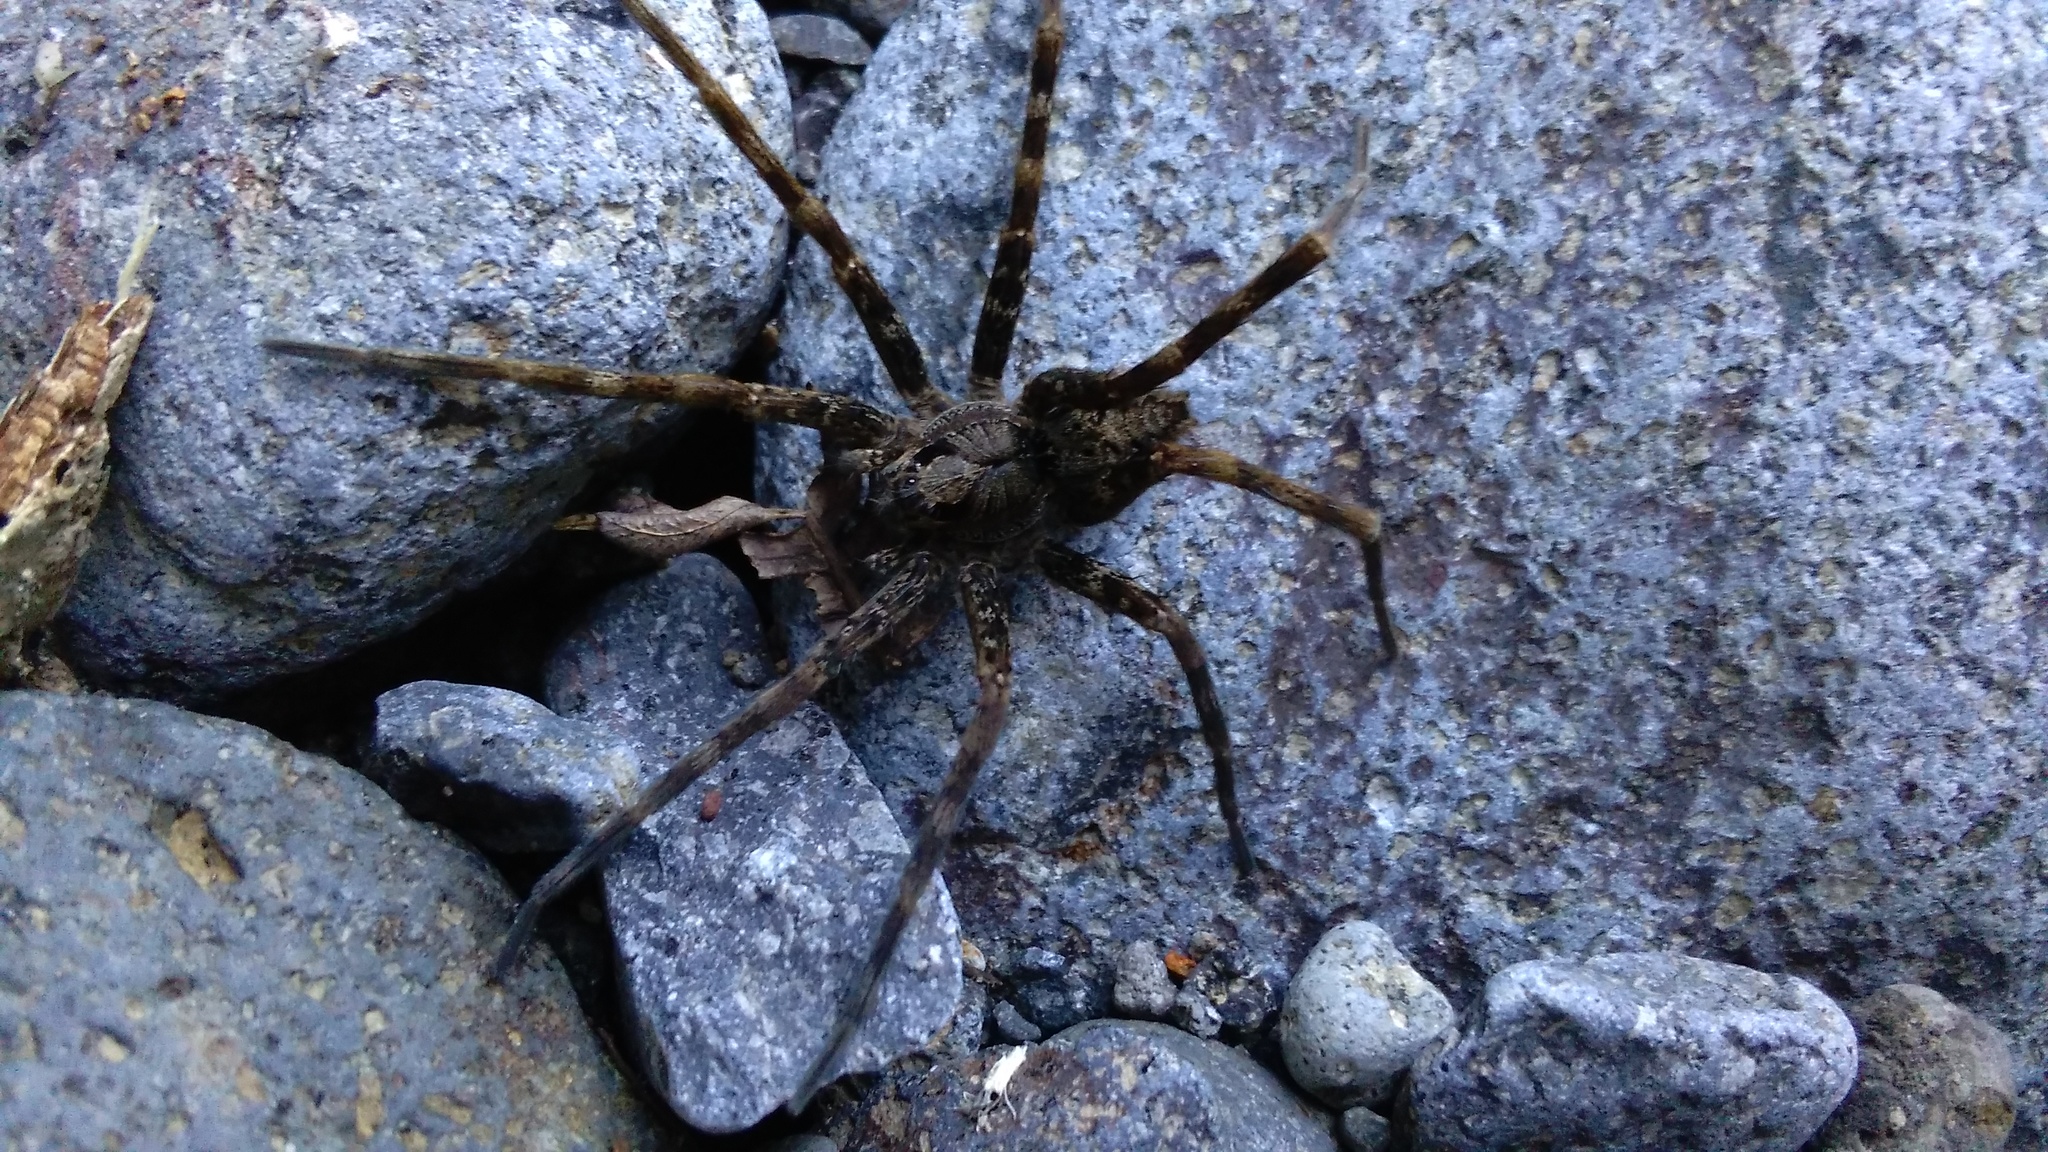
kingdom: Animalia
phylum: Arthropoda
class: Arachnida
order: Araneae
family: Pisauridae
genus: Dolomedes
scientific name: Dolomedes dondalei
